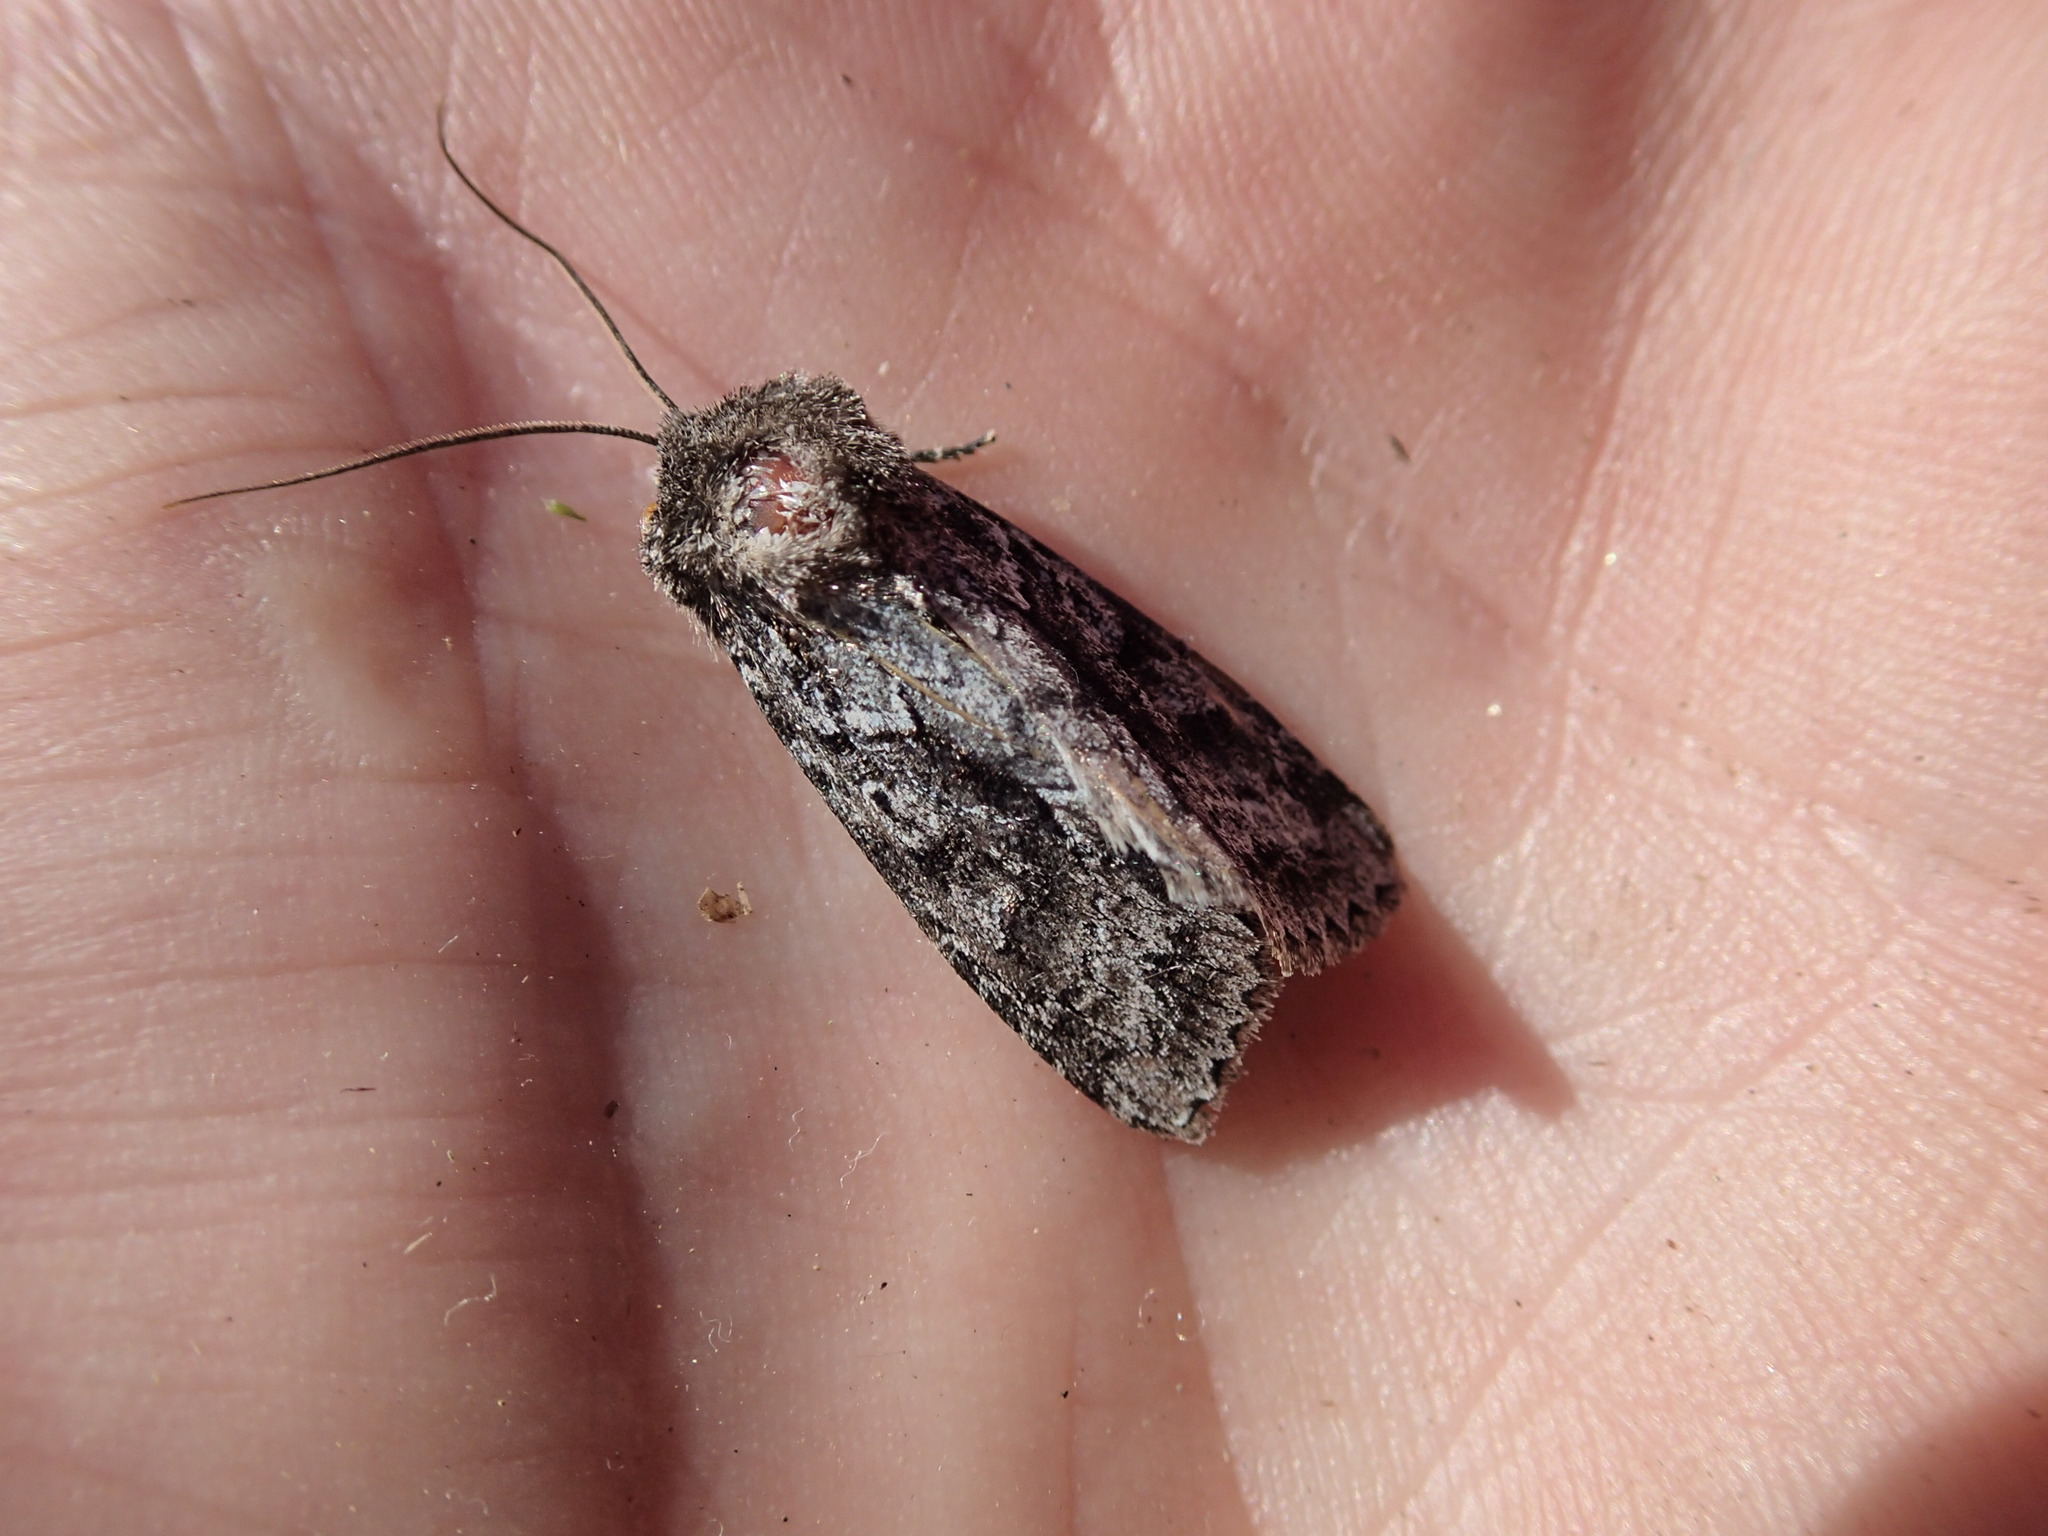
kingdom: Animalia
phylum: Arthropoda
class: Insecta
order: Lepidoptera
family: Noctuidae
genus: Sutyna
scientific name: Sutyna privata
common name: Private sallow
